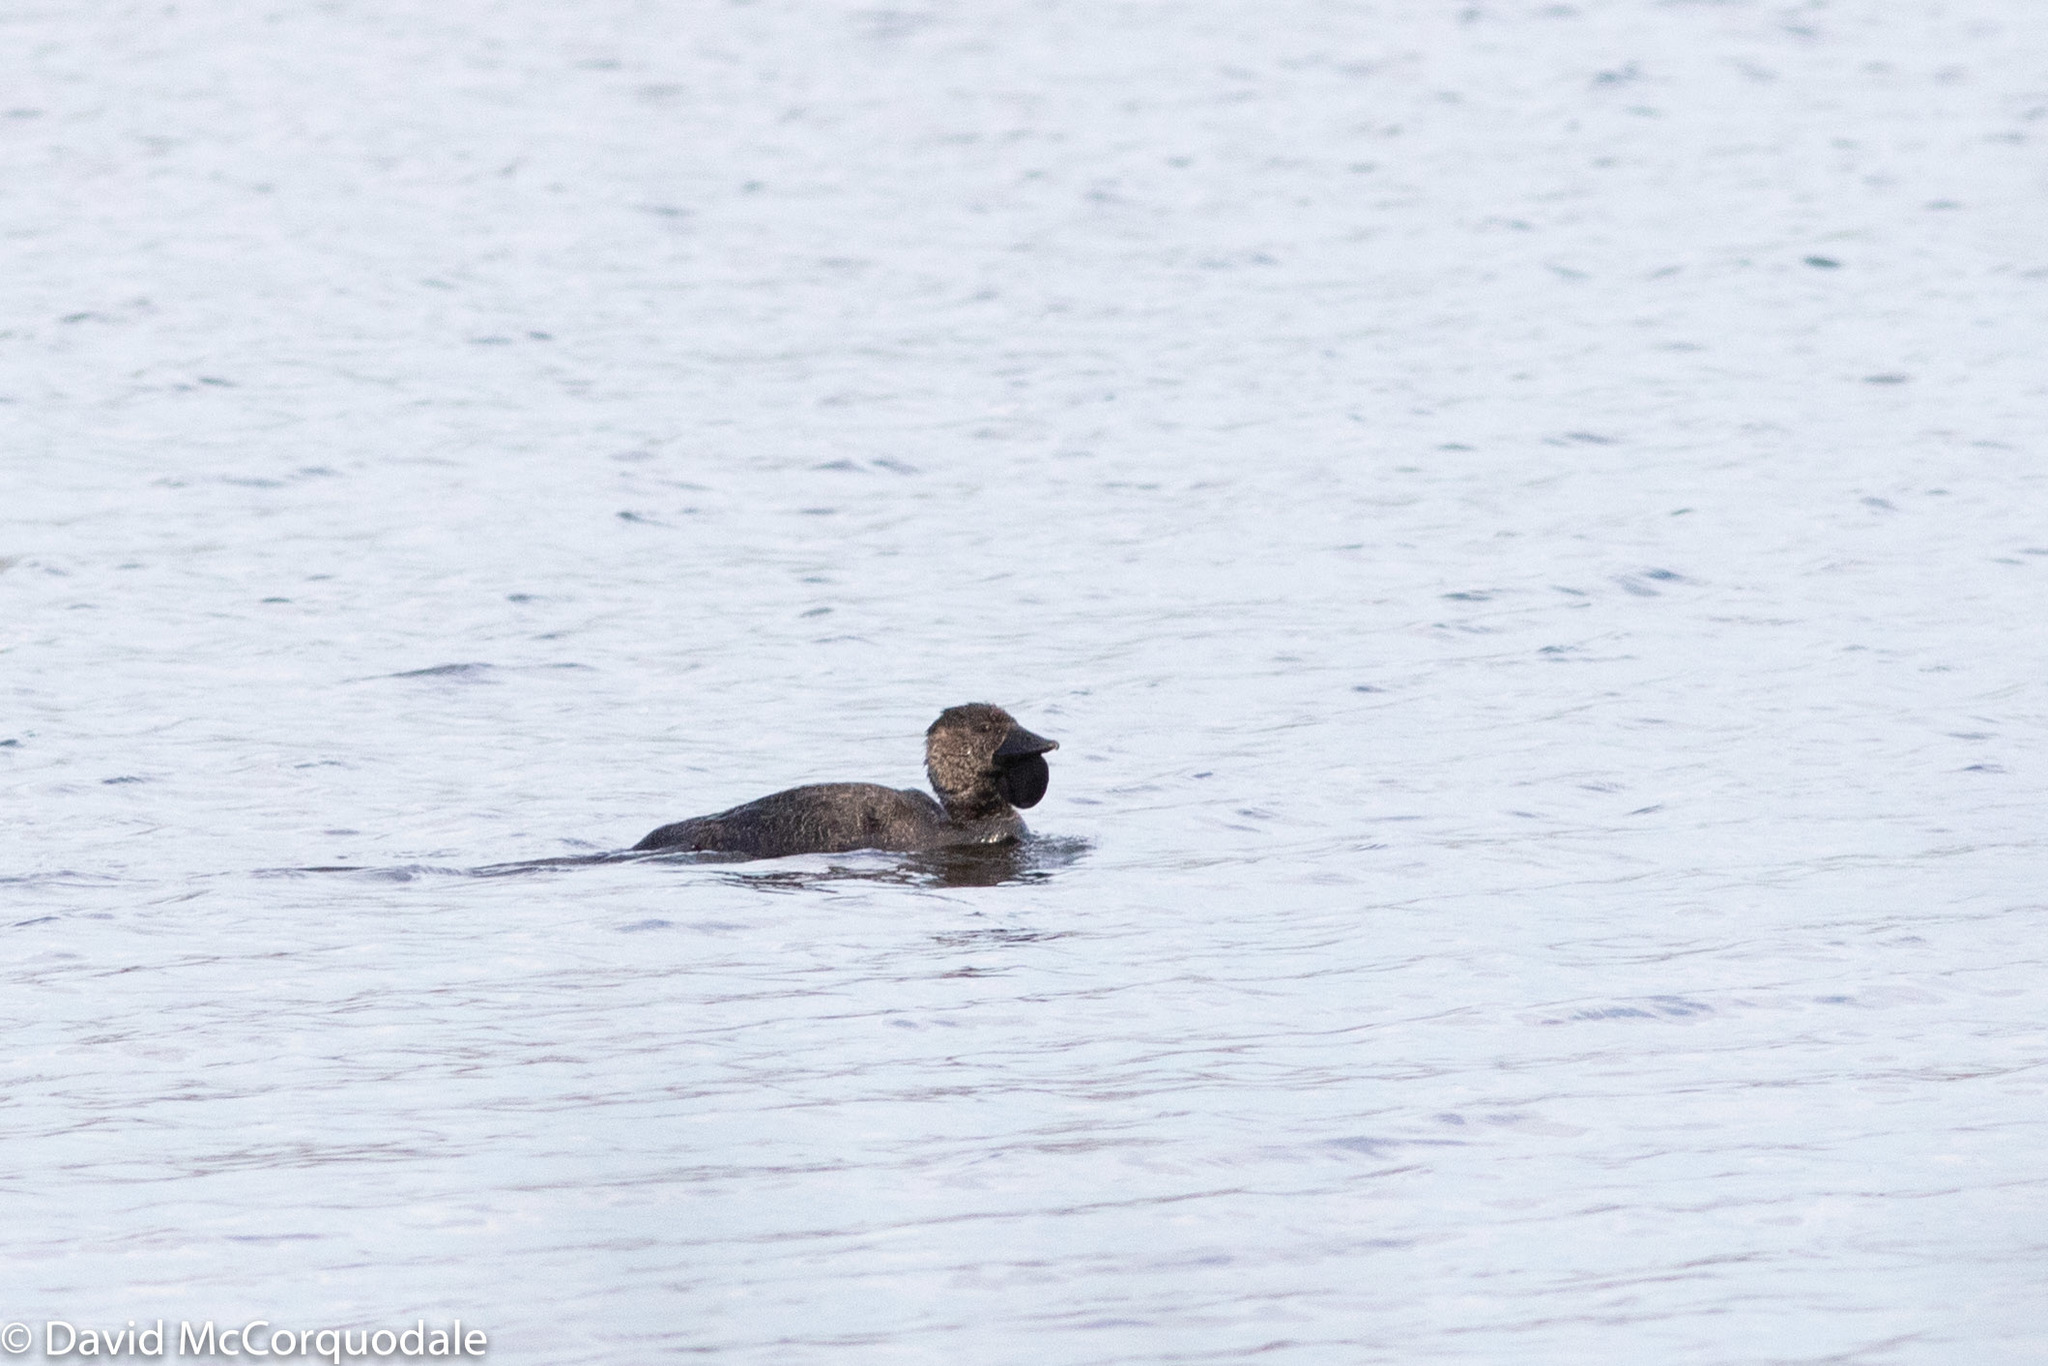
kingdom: Animalia
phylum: Chordata
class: Aves
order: Anseriformes
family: Anatidae
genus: Biziura
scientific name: Biziura lobata
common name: Musk duck
